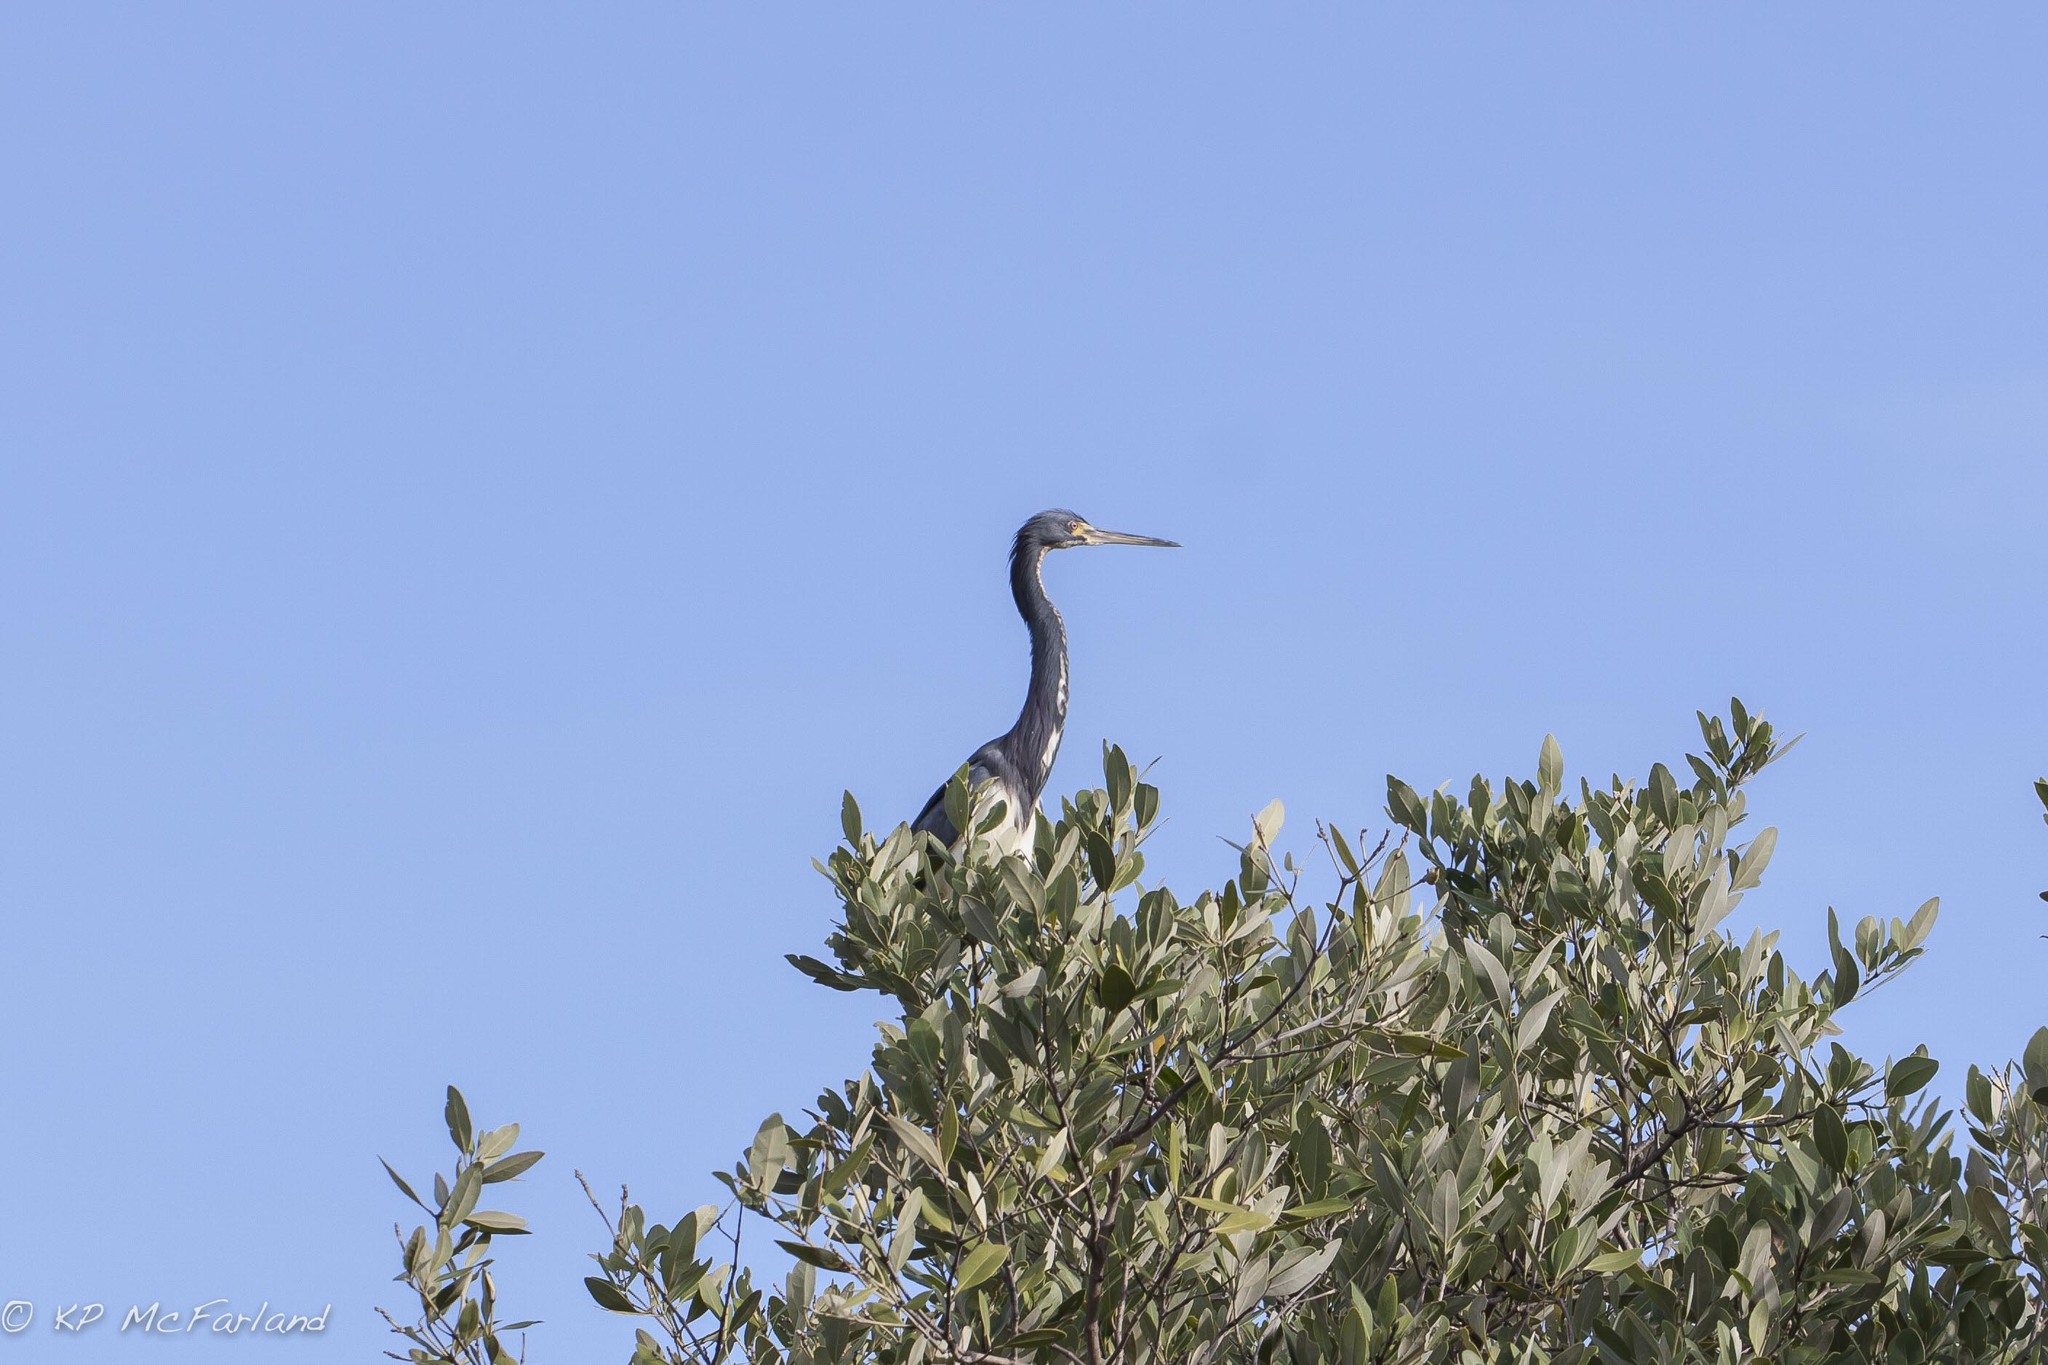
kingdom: Animalia
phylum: Chordata
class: Aves
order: Pelecaniformes
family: Ardeidae
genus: Egretta
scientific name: Egretta tricolor
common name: Tricolored heron
